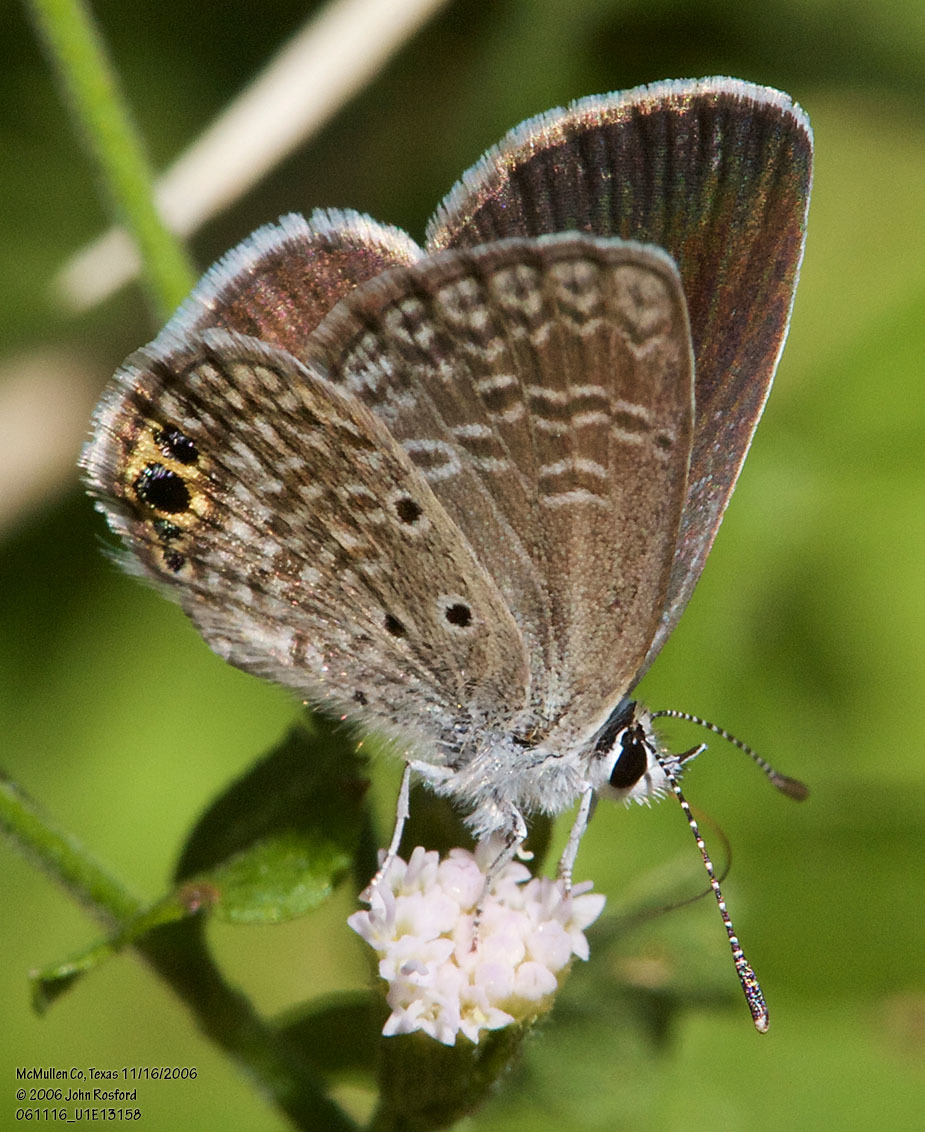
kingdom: Animalia
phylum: Arthropoda
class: Insecta
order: Lepidoptera
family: Lycaenidae
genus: Hemiargus
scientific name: Hemiargus ceraunus
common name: Ceraunus blue
